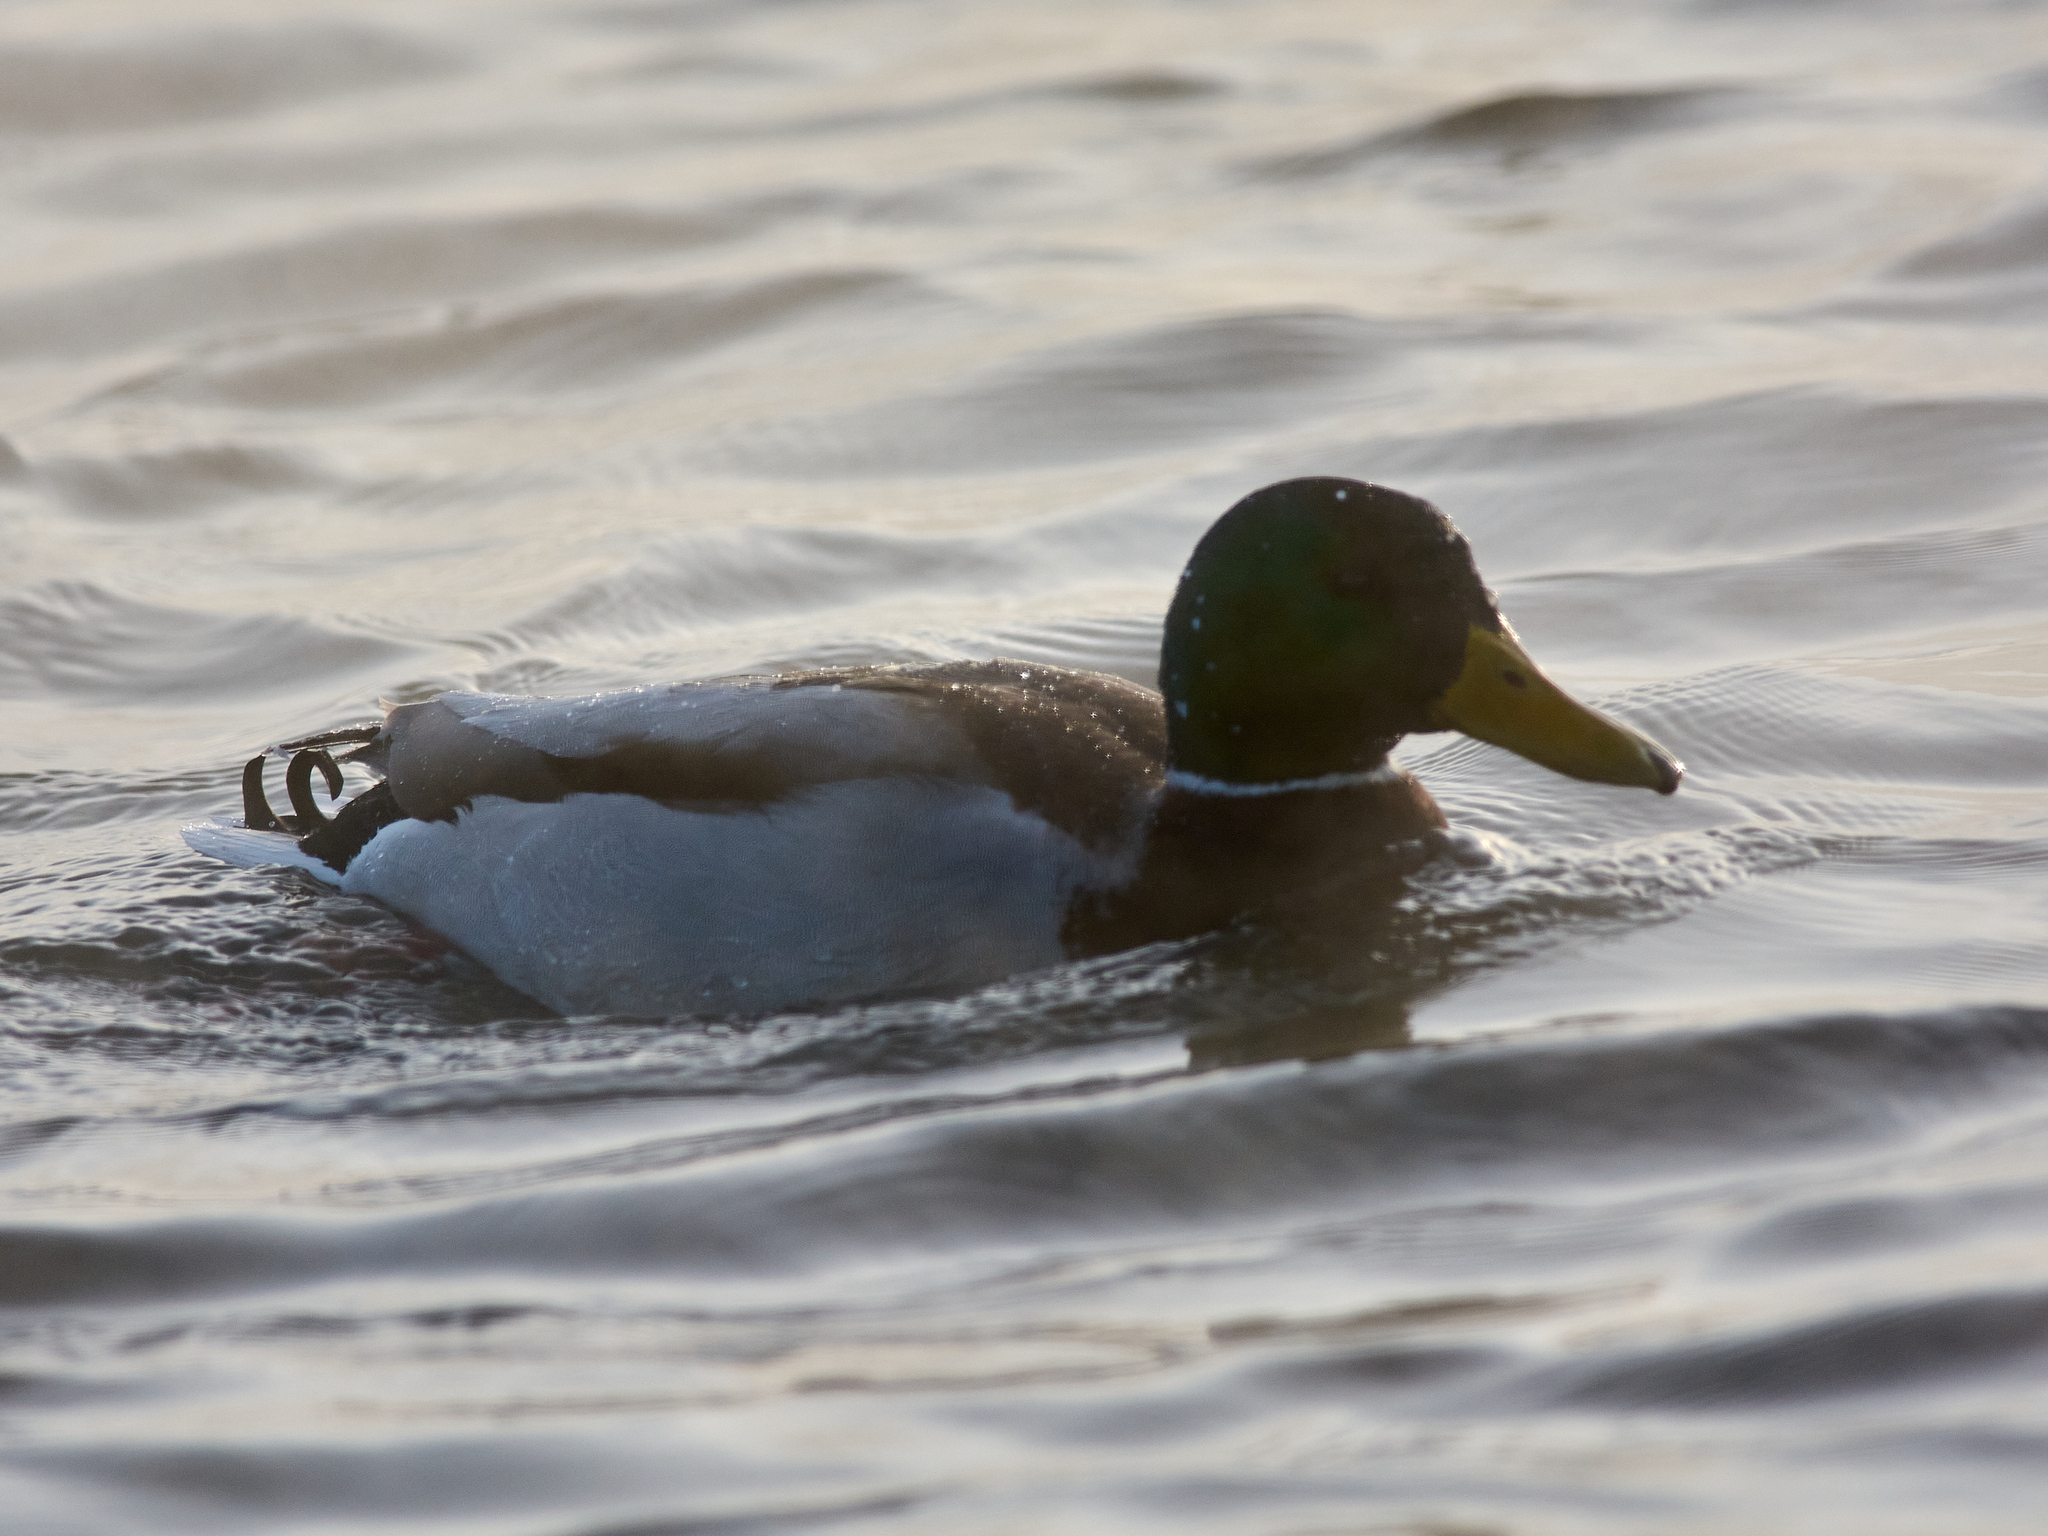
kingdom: Animalia
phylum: Chordata
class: Aves
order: Anseriformes
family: Anatidae
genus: Anas
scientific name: Anas platyrhynchos
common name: Mallard
